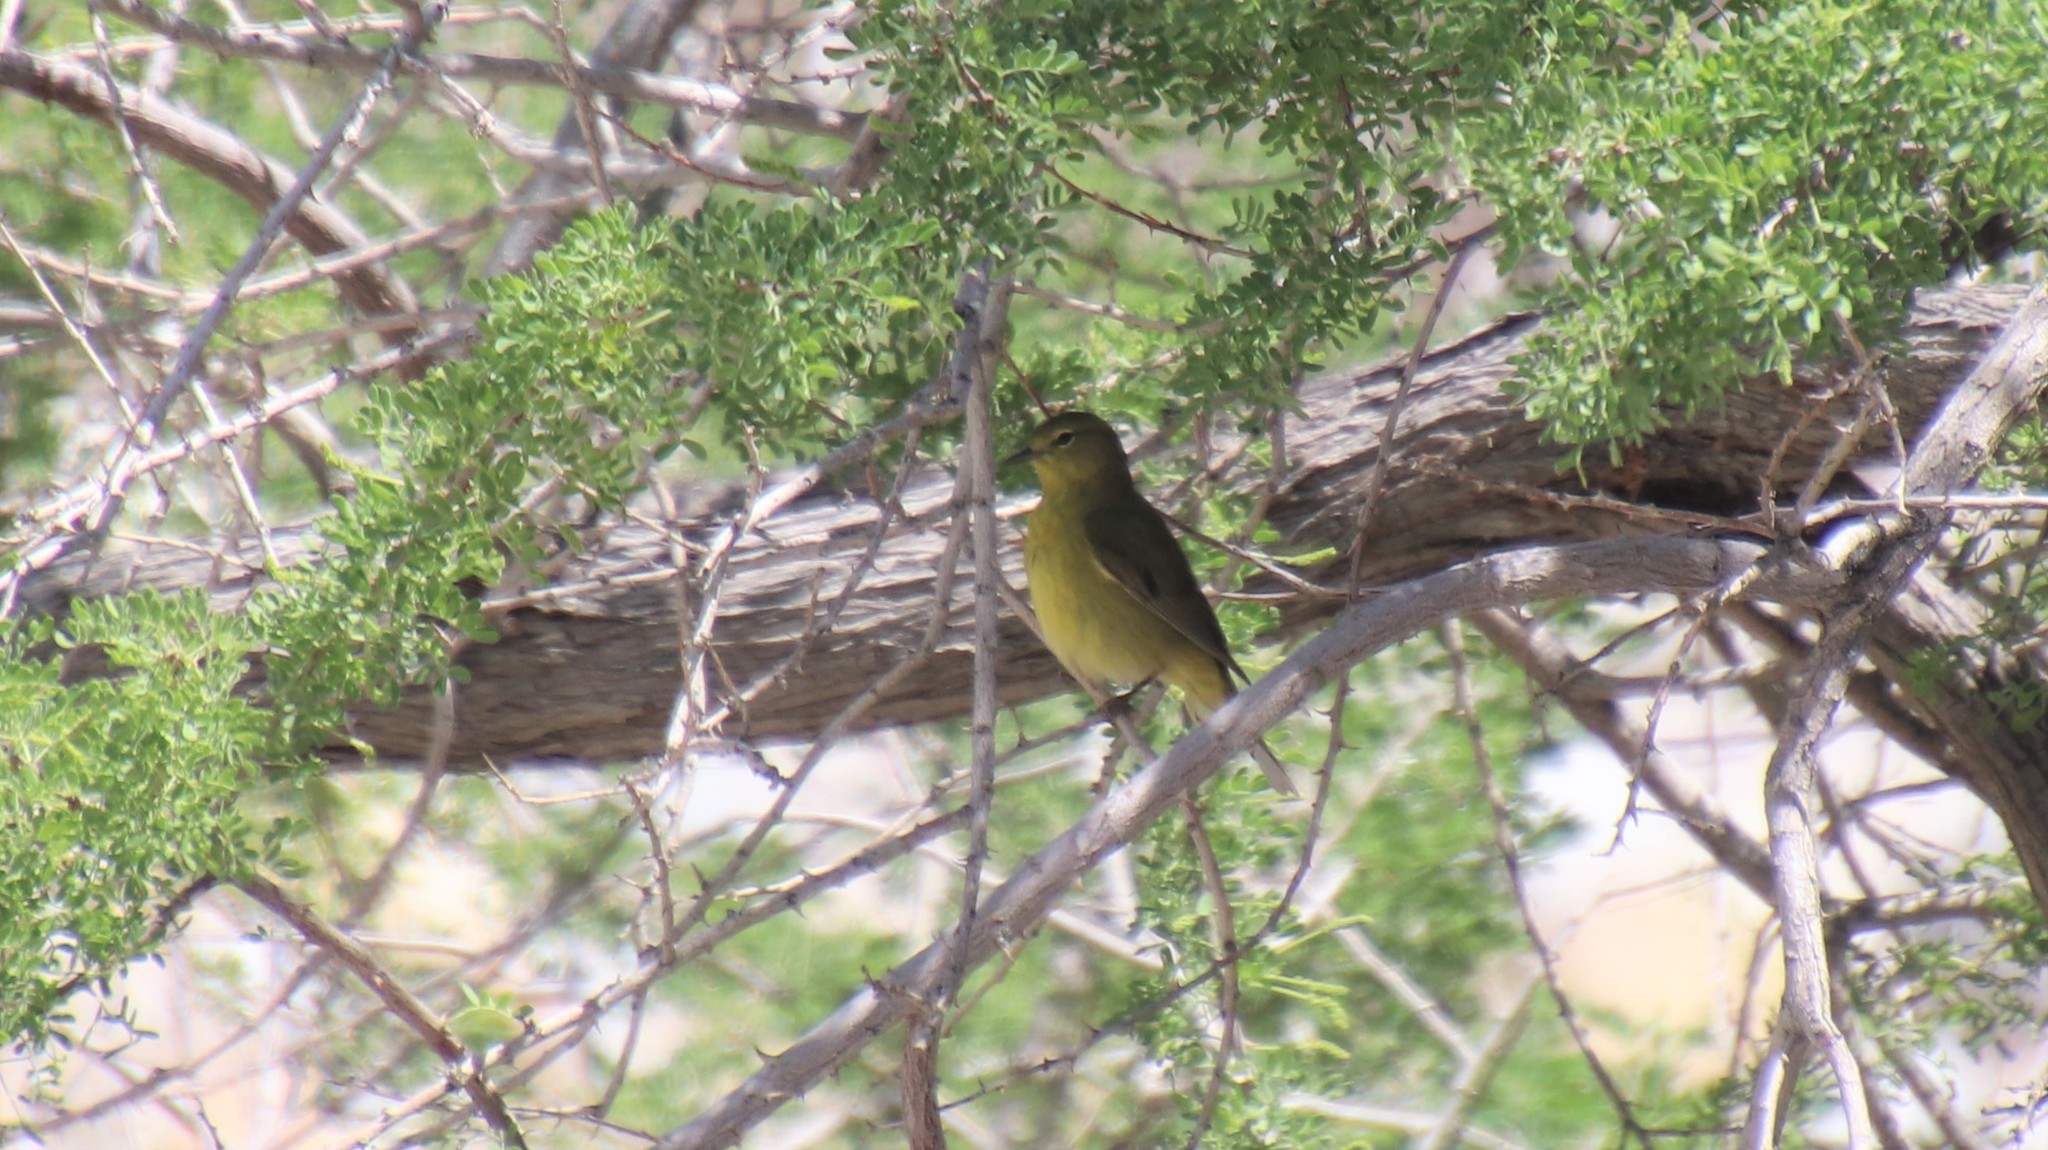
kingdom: Animalia
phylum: Chordata
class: Aves
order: Passeriformes
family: Parulidae
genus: Leiothlypis
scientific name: Leiothlypis celata
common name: Orange-crowned warbler
